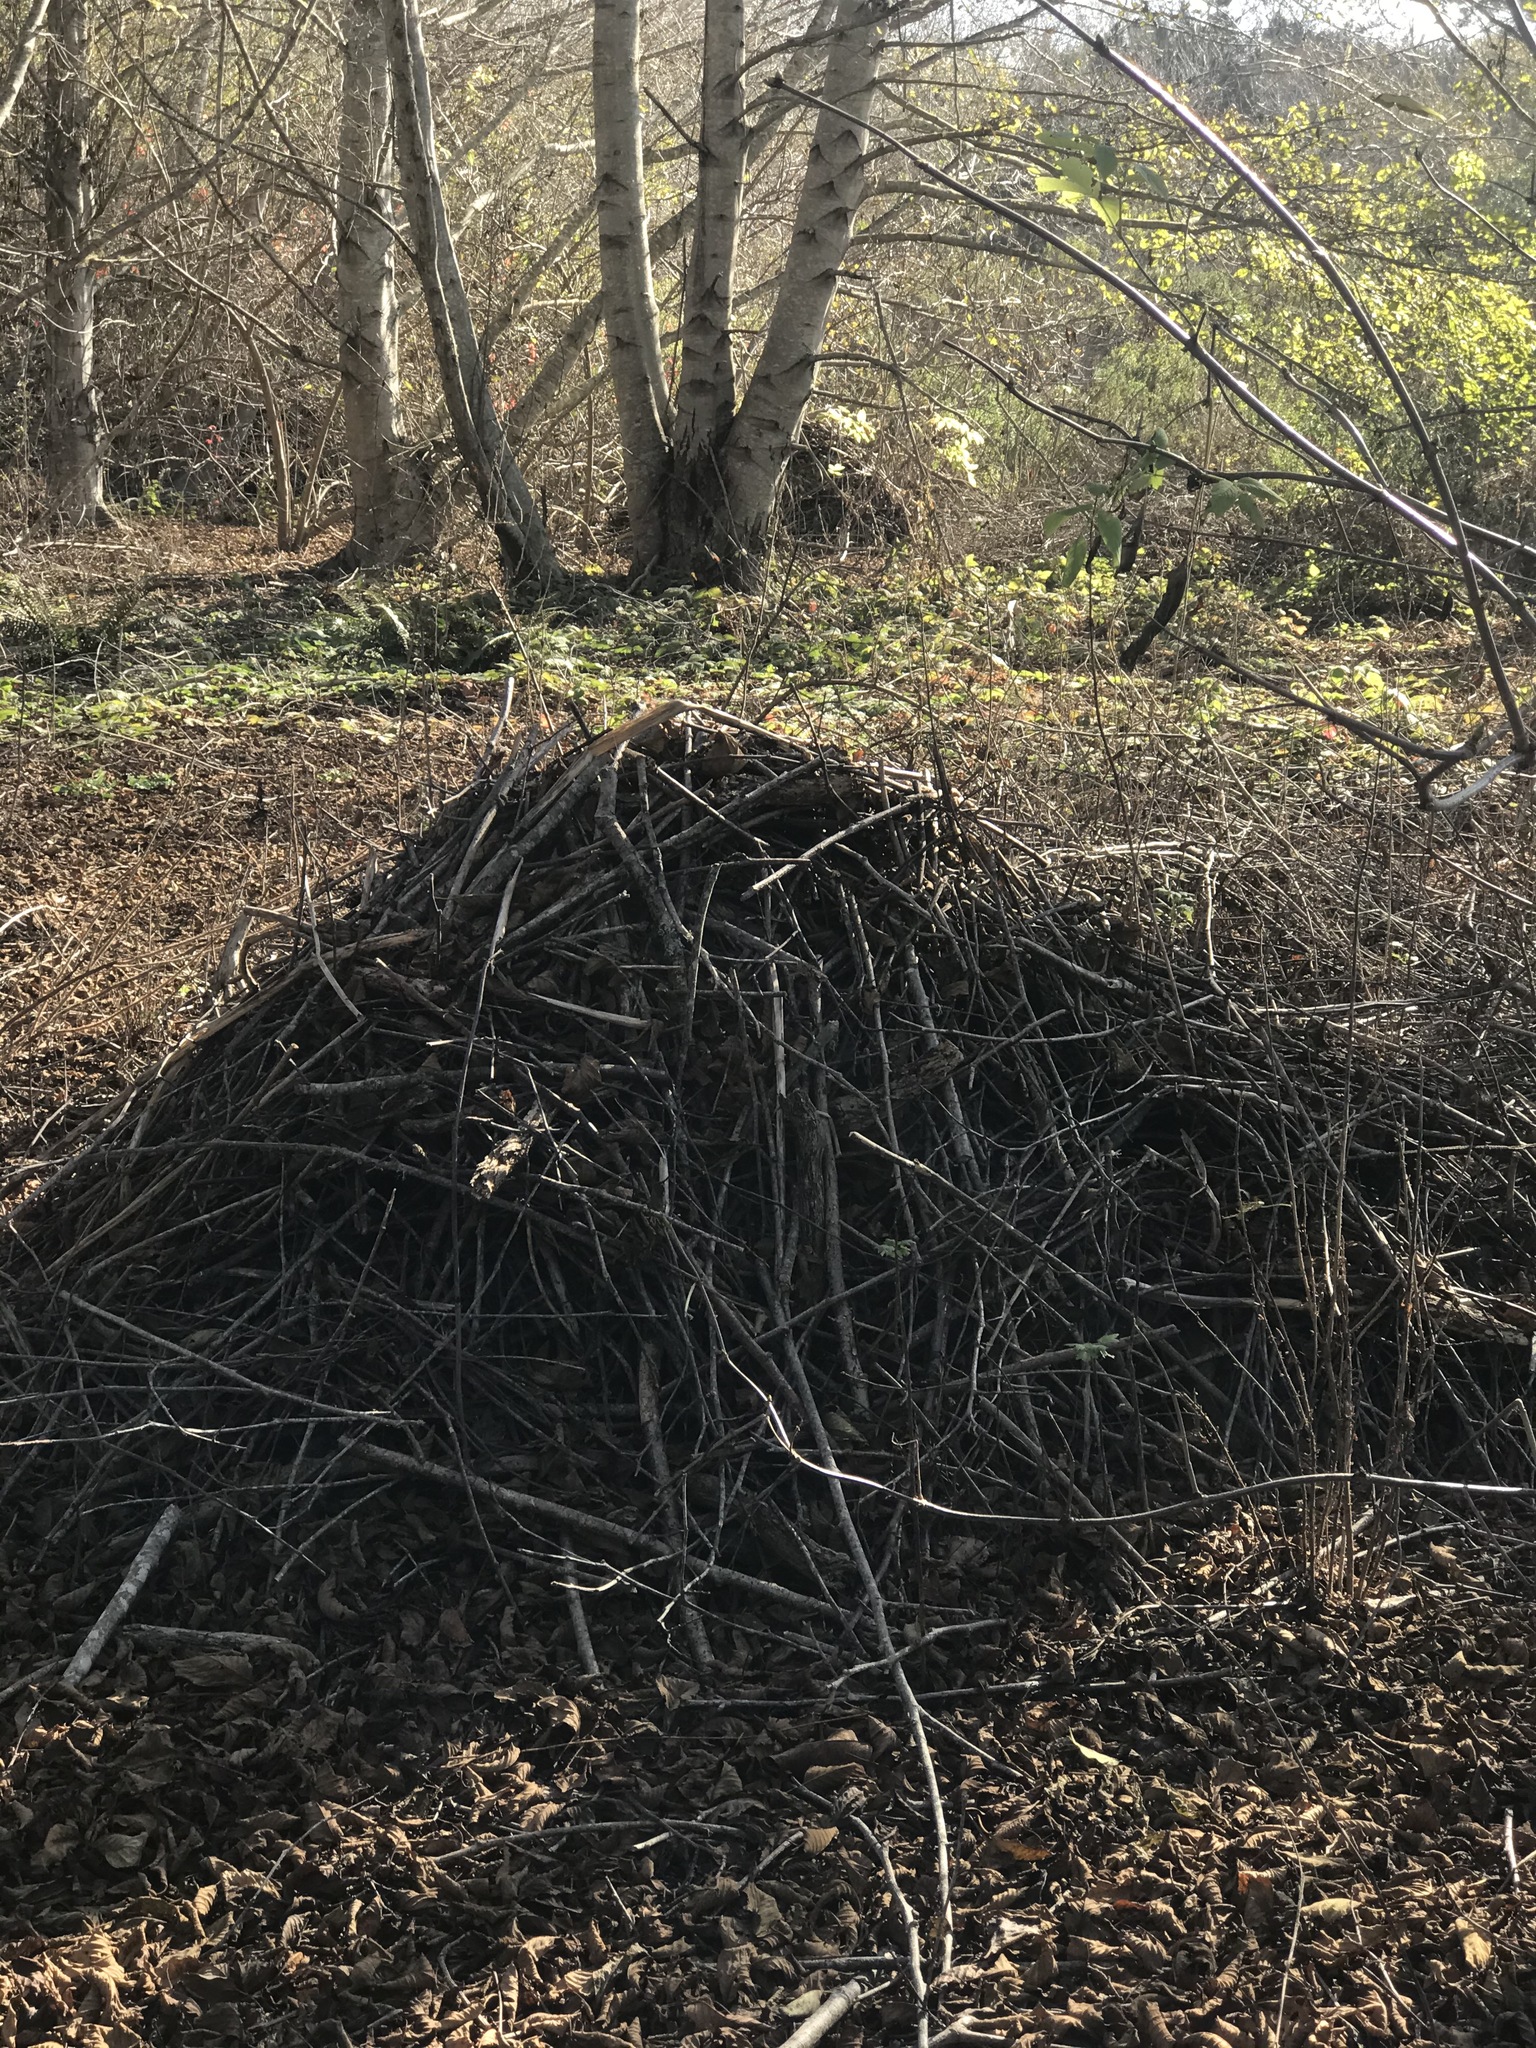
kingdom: Animalia
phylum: Chordata
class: Mammalia
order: Rodentia
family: Cricetidae
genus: Neotoma
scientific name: Neotoma fuscipes
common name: Dusky-footed woodrat
